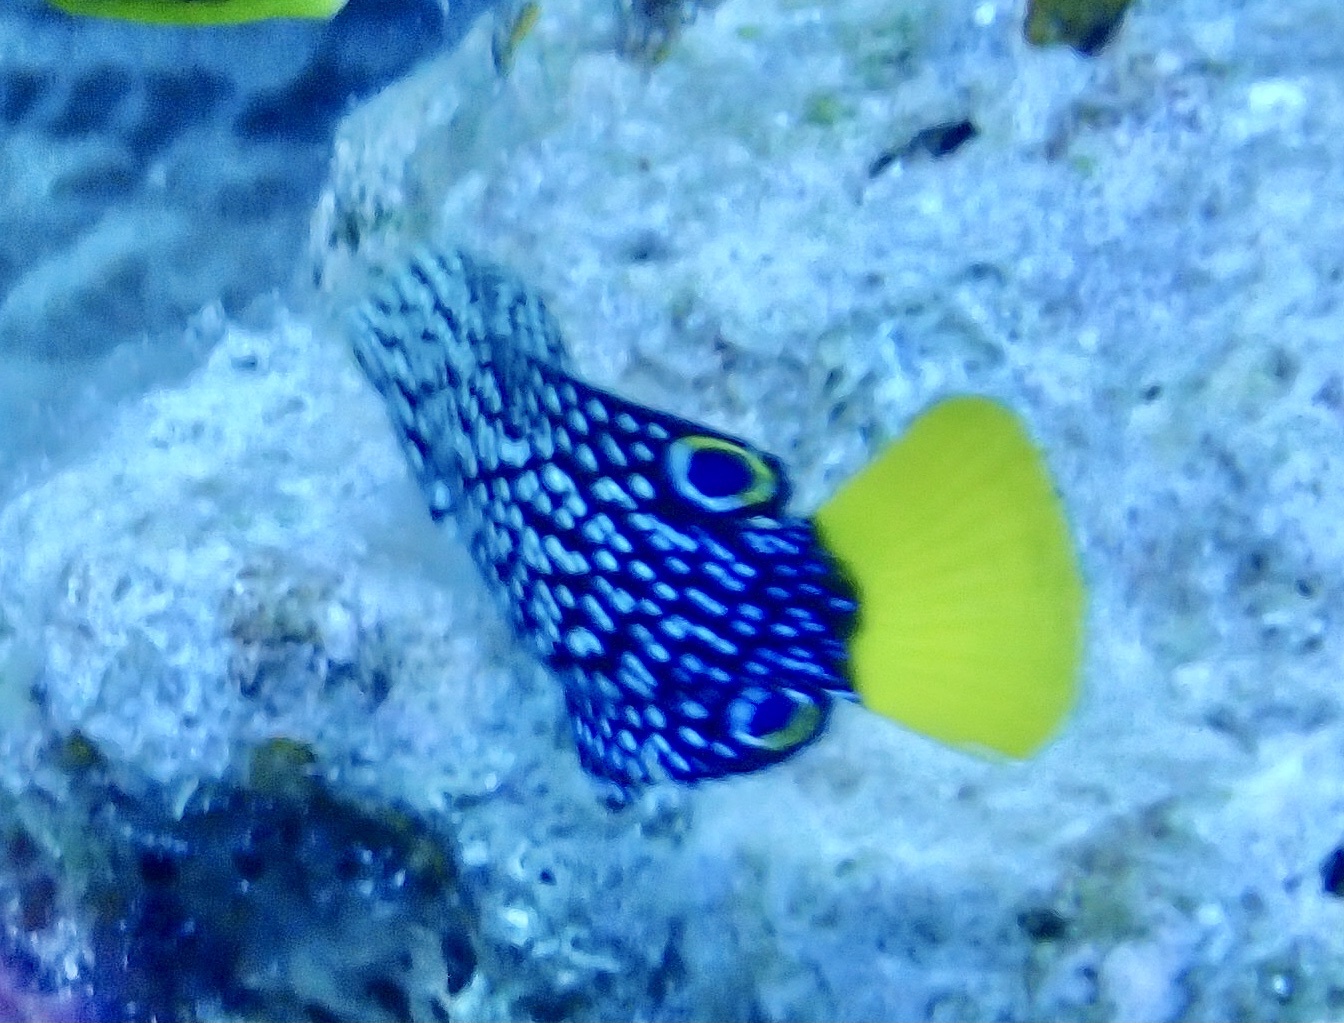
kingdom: Animalia
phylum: Chordata
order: Perciformes
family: Labridae
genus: Anampses
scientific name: Anampses meleagrides
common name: Yellowtail wrasse
